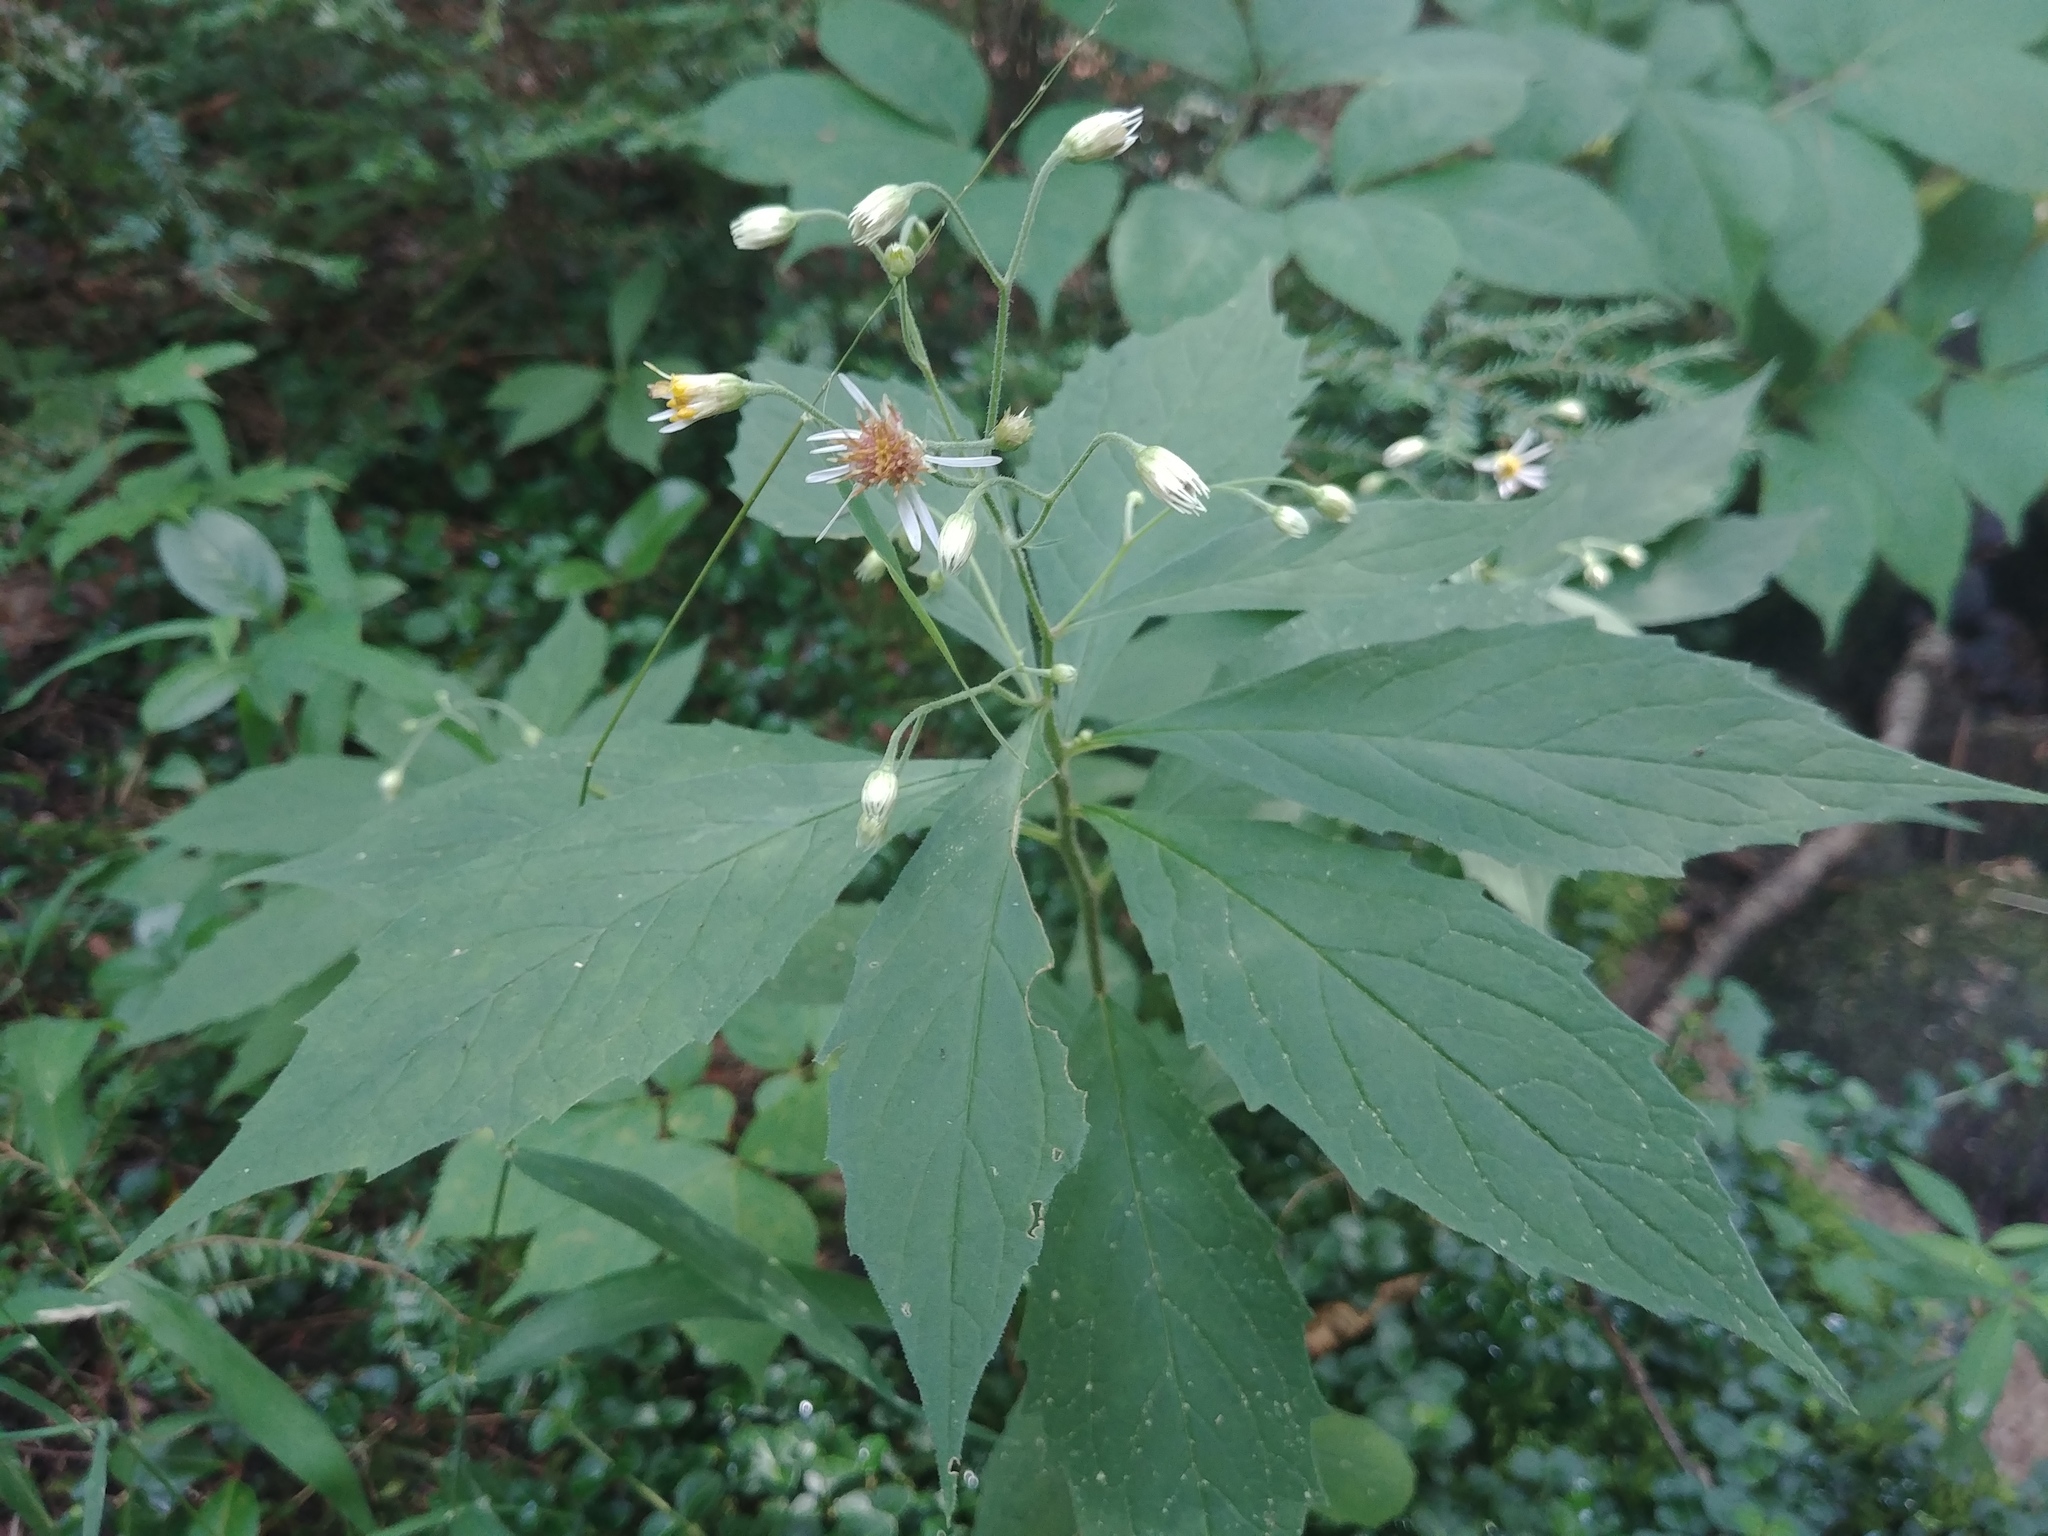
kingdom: Plantae
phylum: Tracheophyta
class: Magnoliopsida
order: Asterales
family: Asteraceae
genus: Oclemena
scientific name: Oclemena acuminata
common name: Mountain aster
